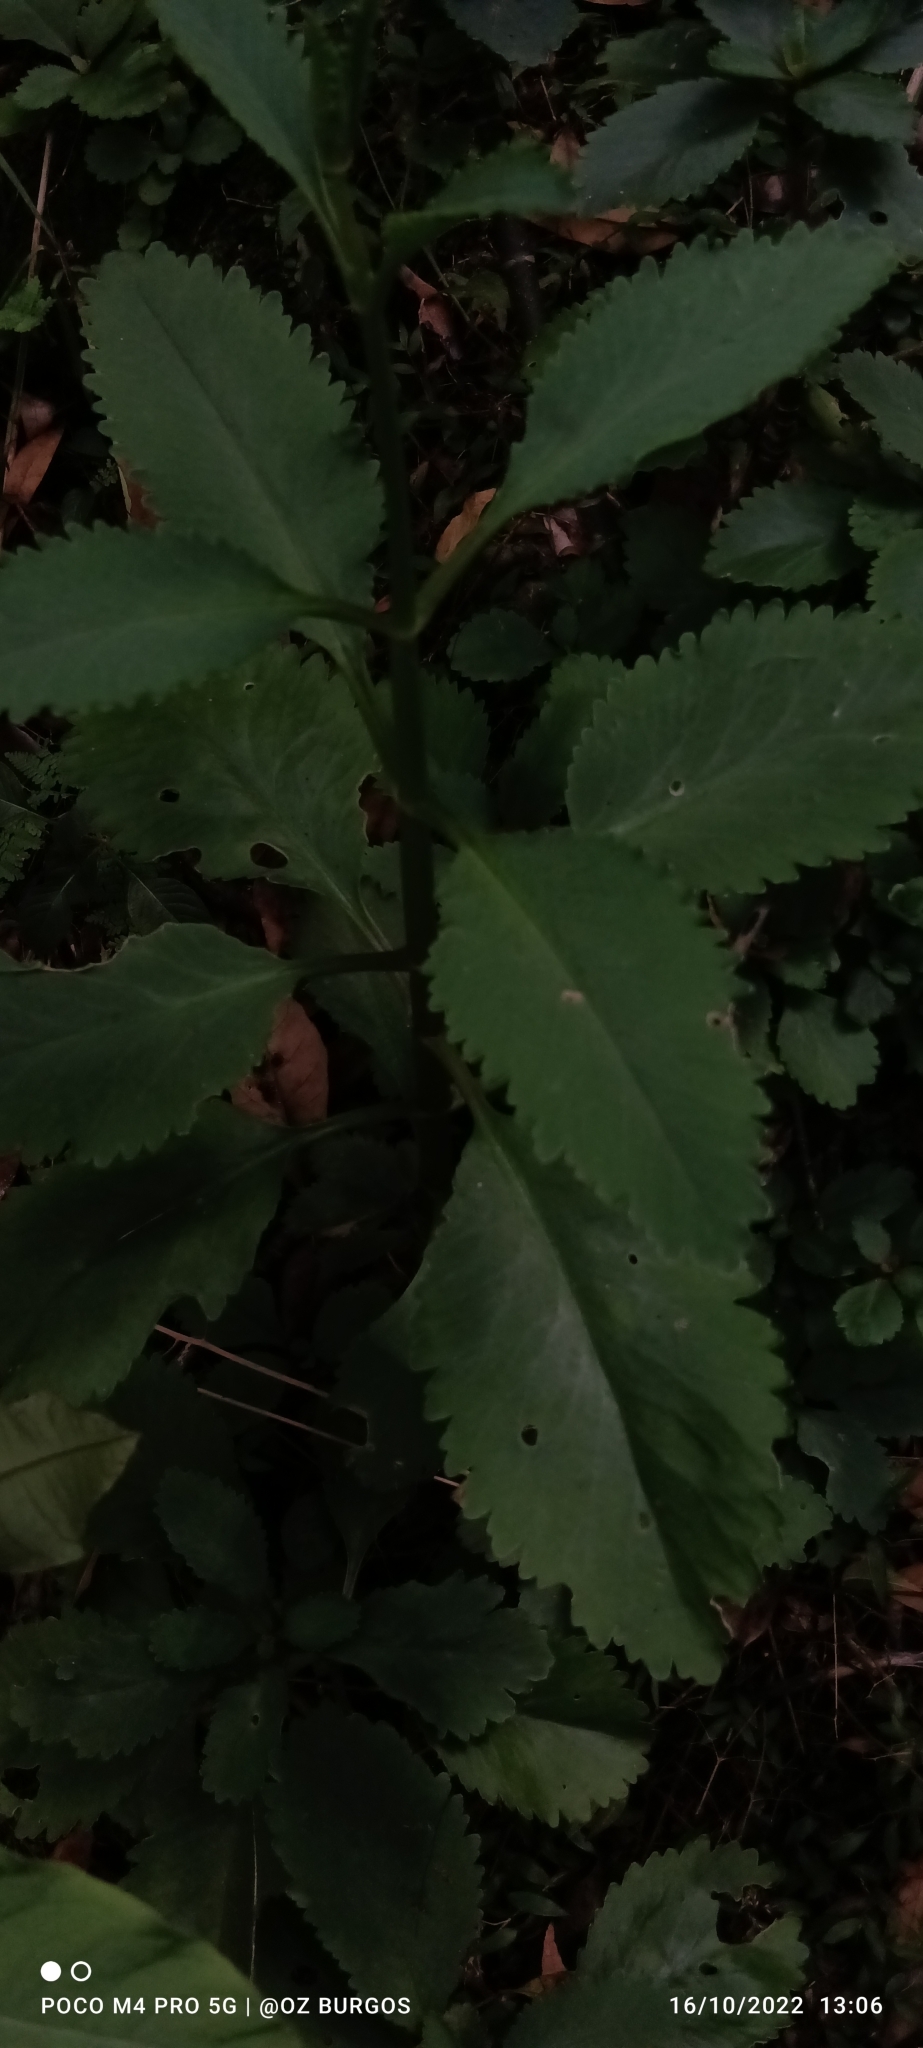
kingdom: Plantae
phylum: Tracheophyta
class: Magnoliopsida
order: Saxifragales
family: Crassulaceae
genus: Kalanchoe
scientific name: Kalanchoe pinnata
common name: Cathedral bells
